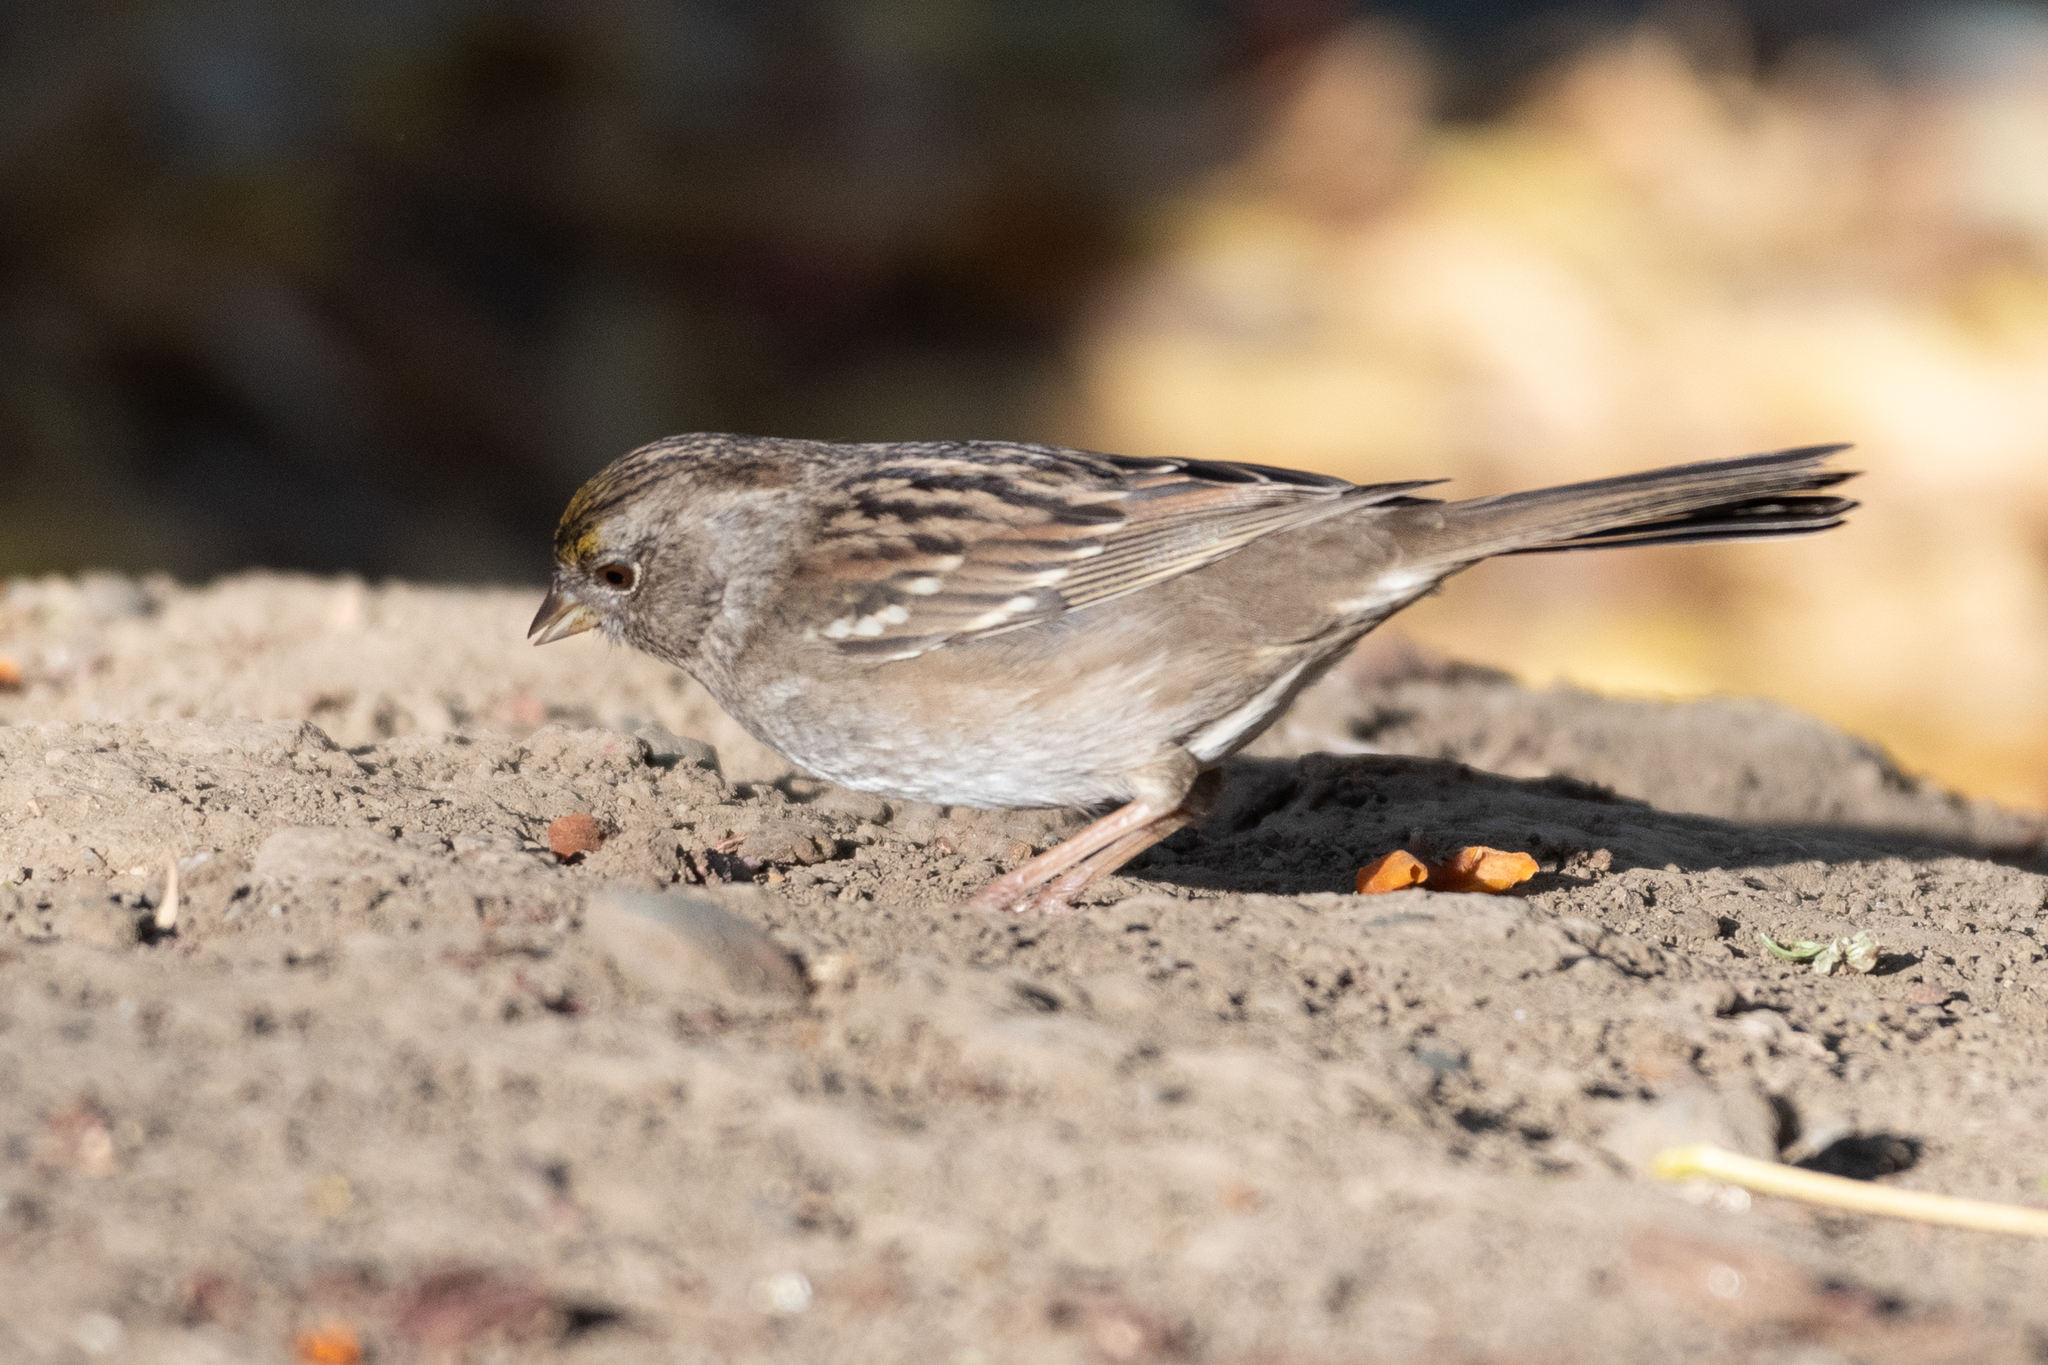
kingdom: Animalia
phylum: Chordata
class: Aves
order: Passeriformes
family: Passerellidae
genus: Zonotrichia
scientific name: Zonotrichia atricapilla
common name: Golden-crowned sparrow
